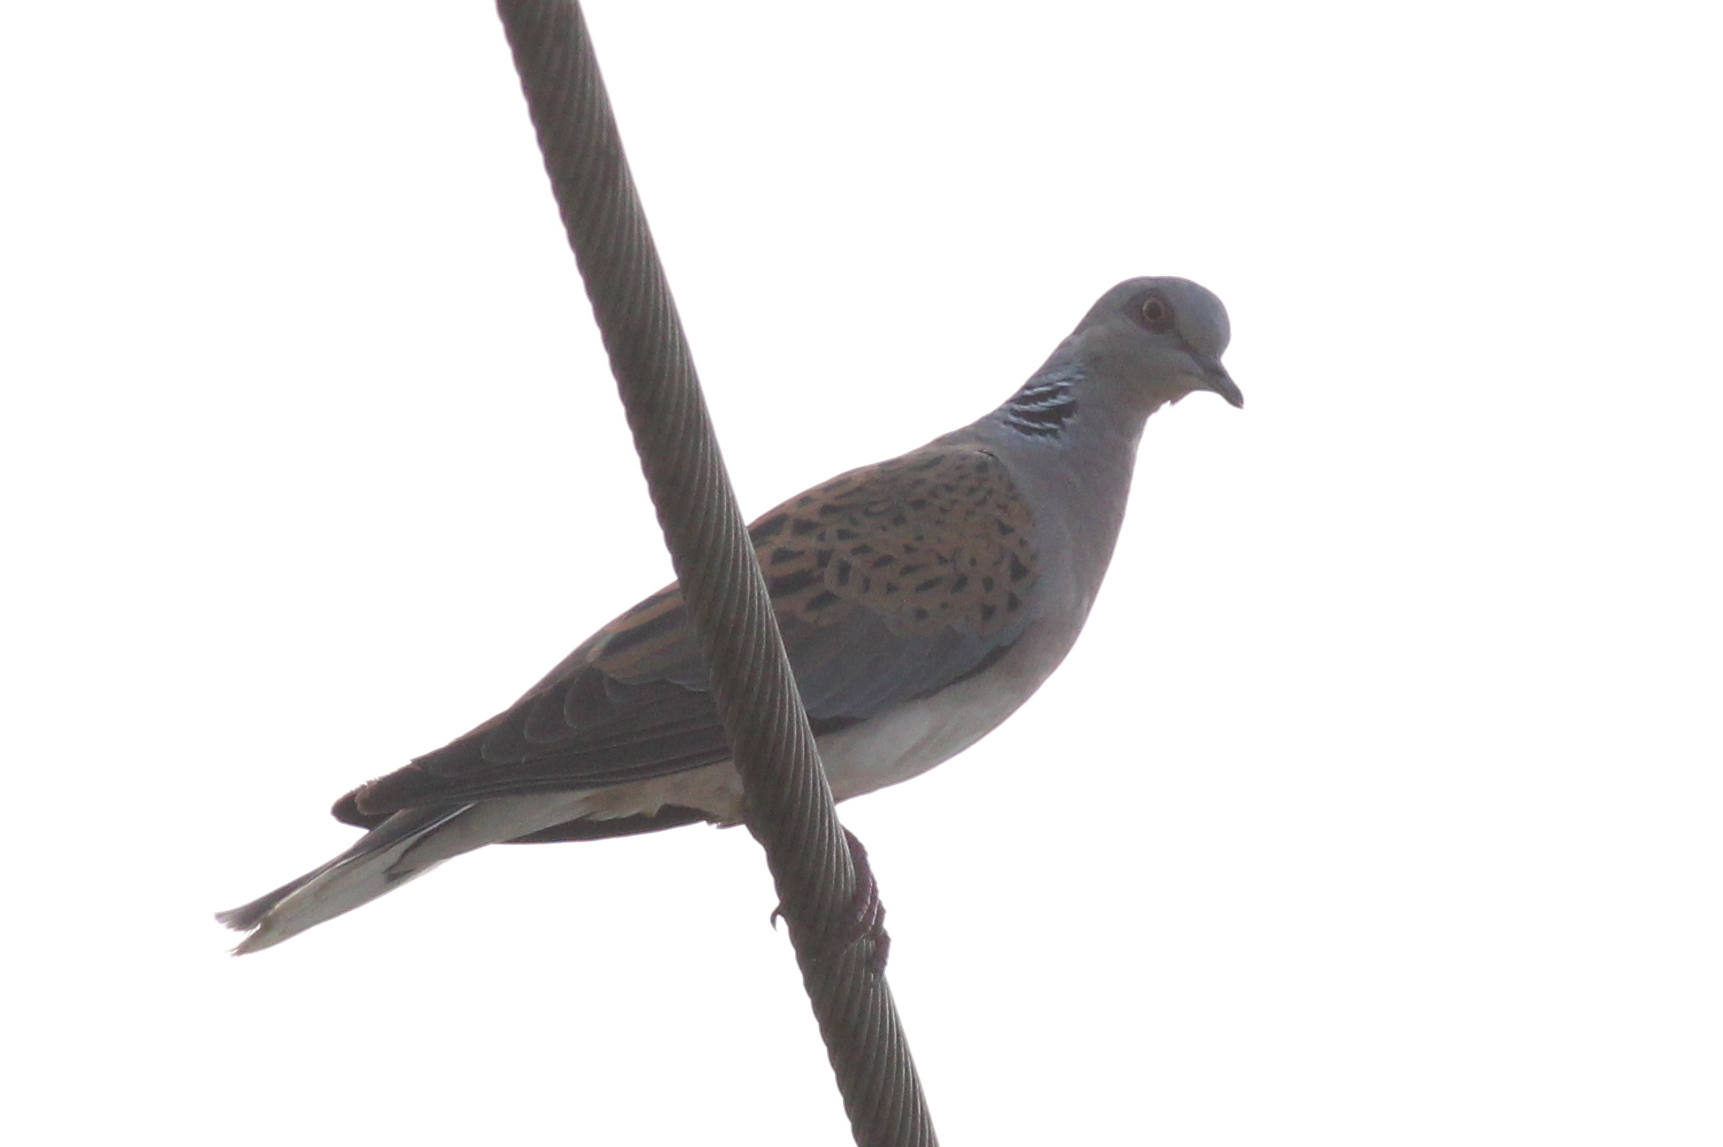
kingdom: Animalia
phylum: Chordata
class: Aves
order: Columbiformes
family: Columbidae
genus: Streptopelia
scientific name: Streptopelia turtur
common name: European turtle dove
